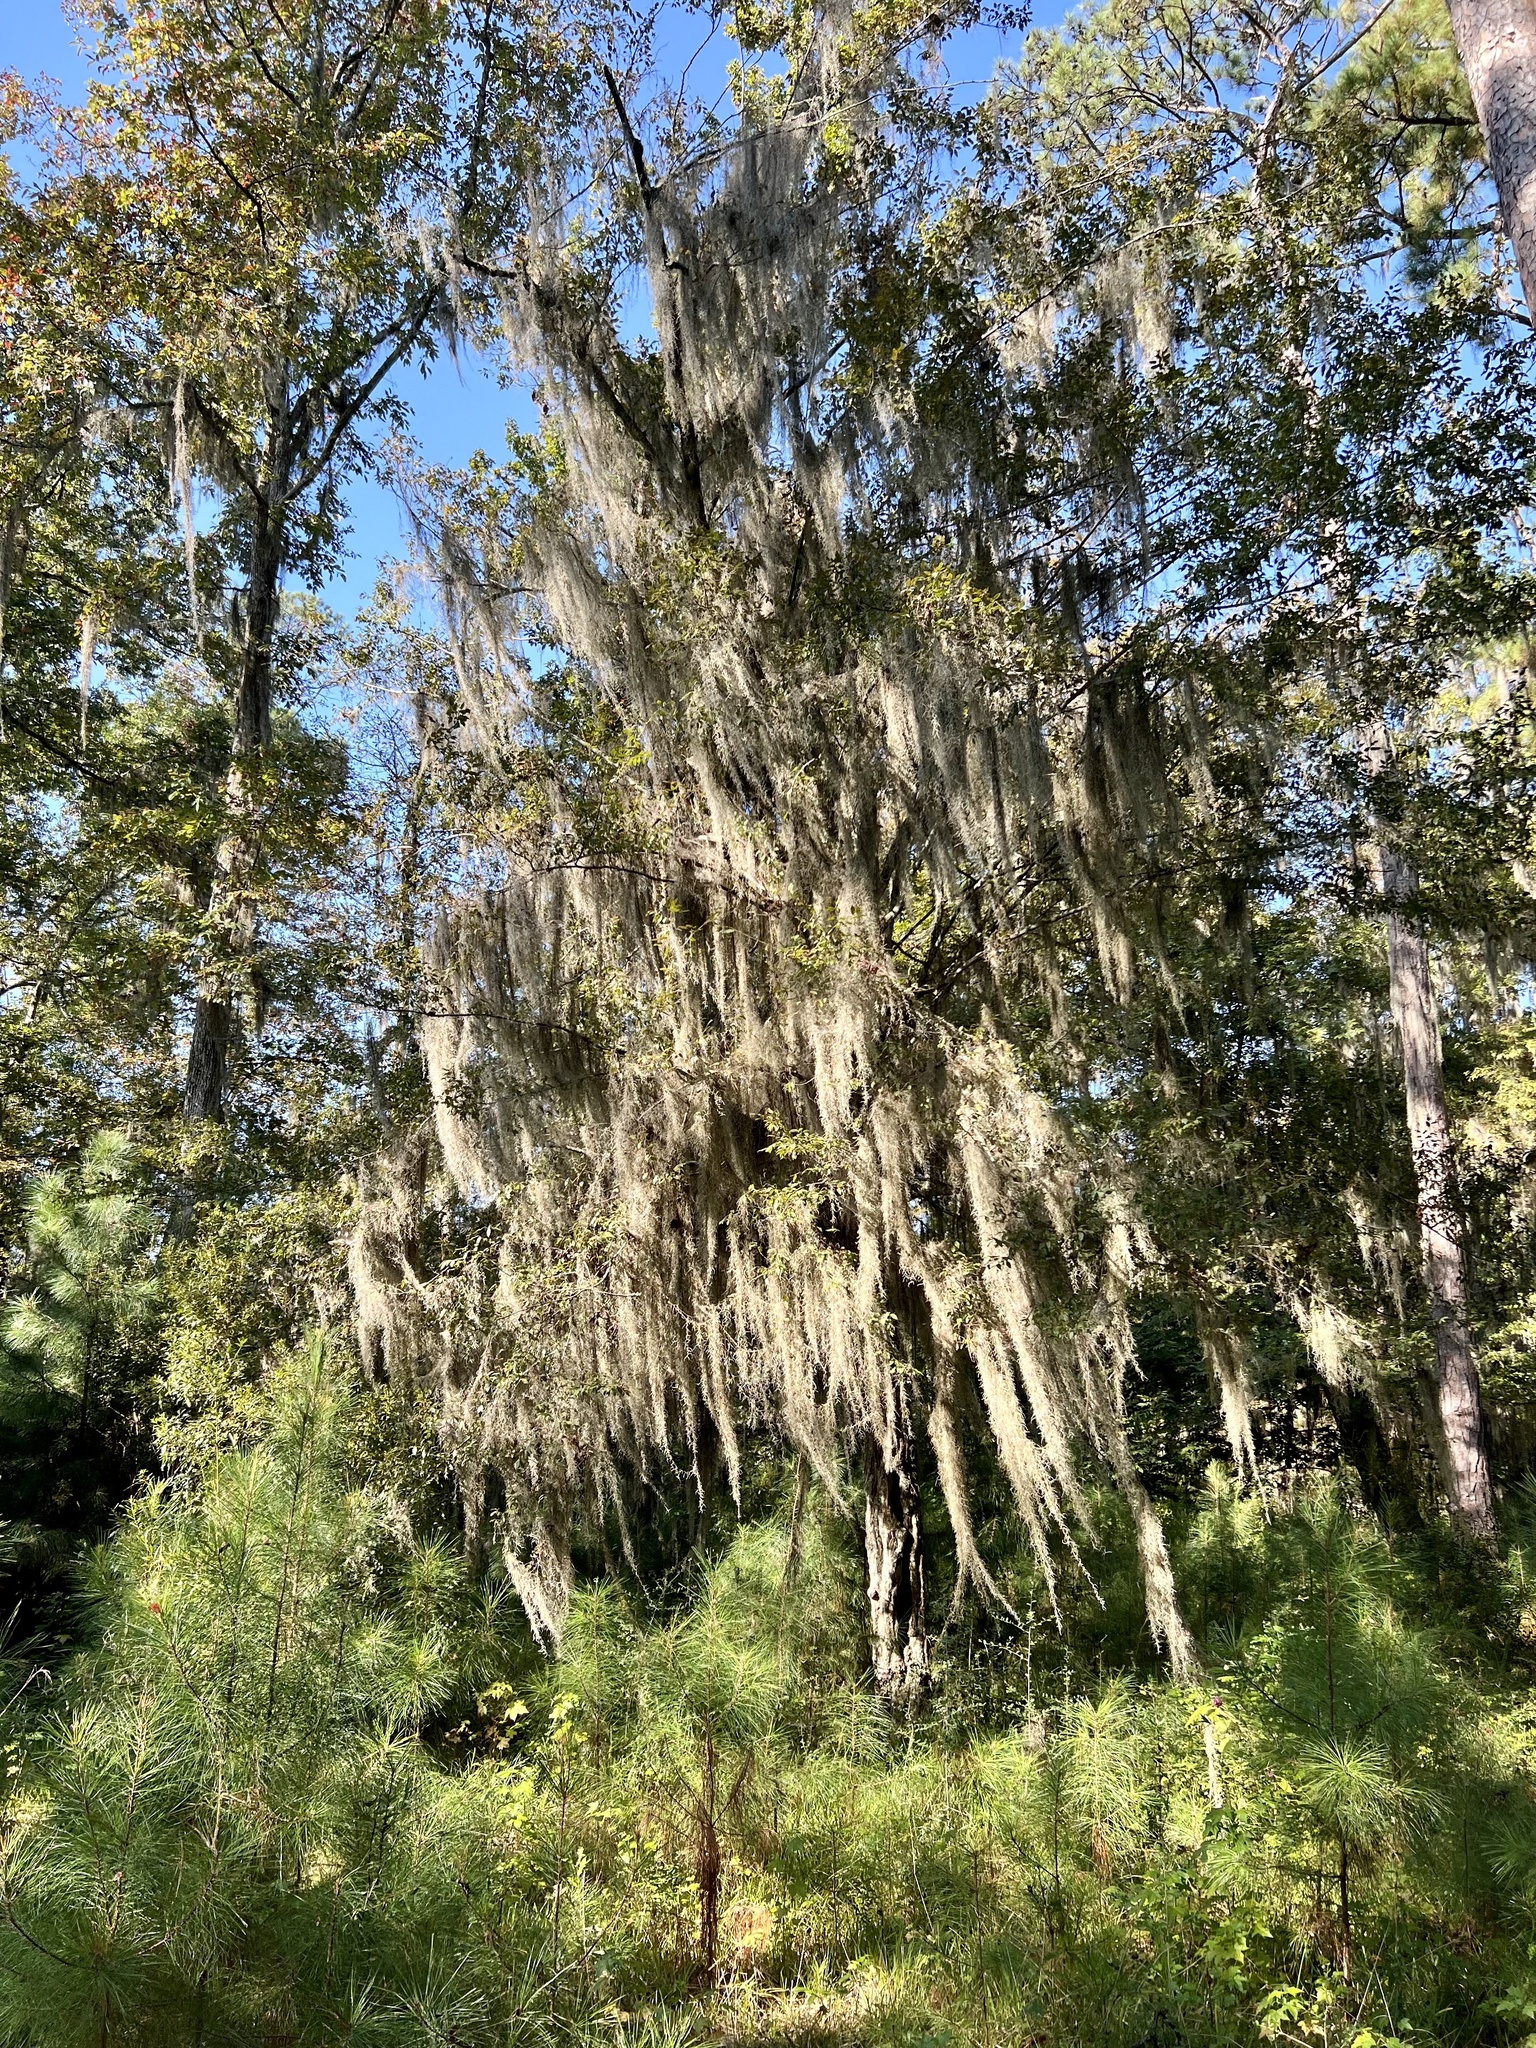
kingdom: Plantae
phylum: Tracheophyta
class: Liliopsida
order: Poales
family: Bromeliaceae
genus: Tillandsia
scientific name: Tillandsia usneoides
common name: Spanish moss
